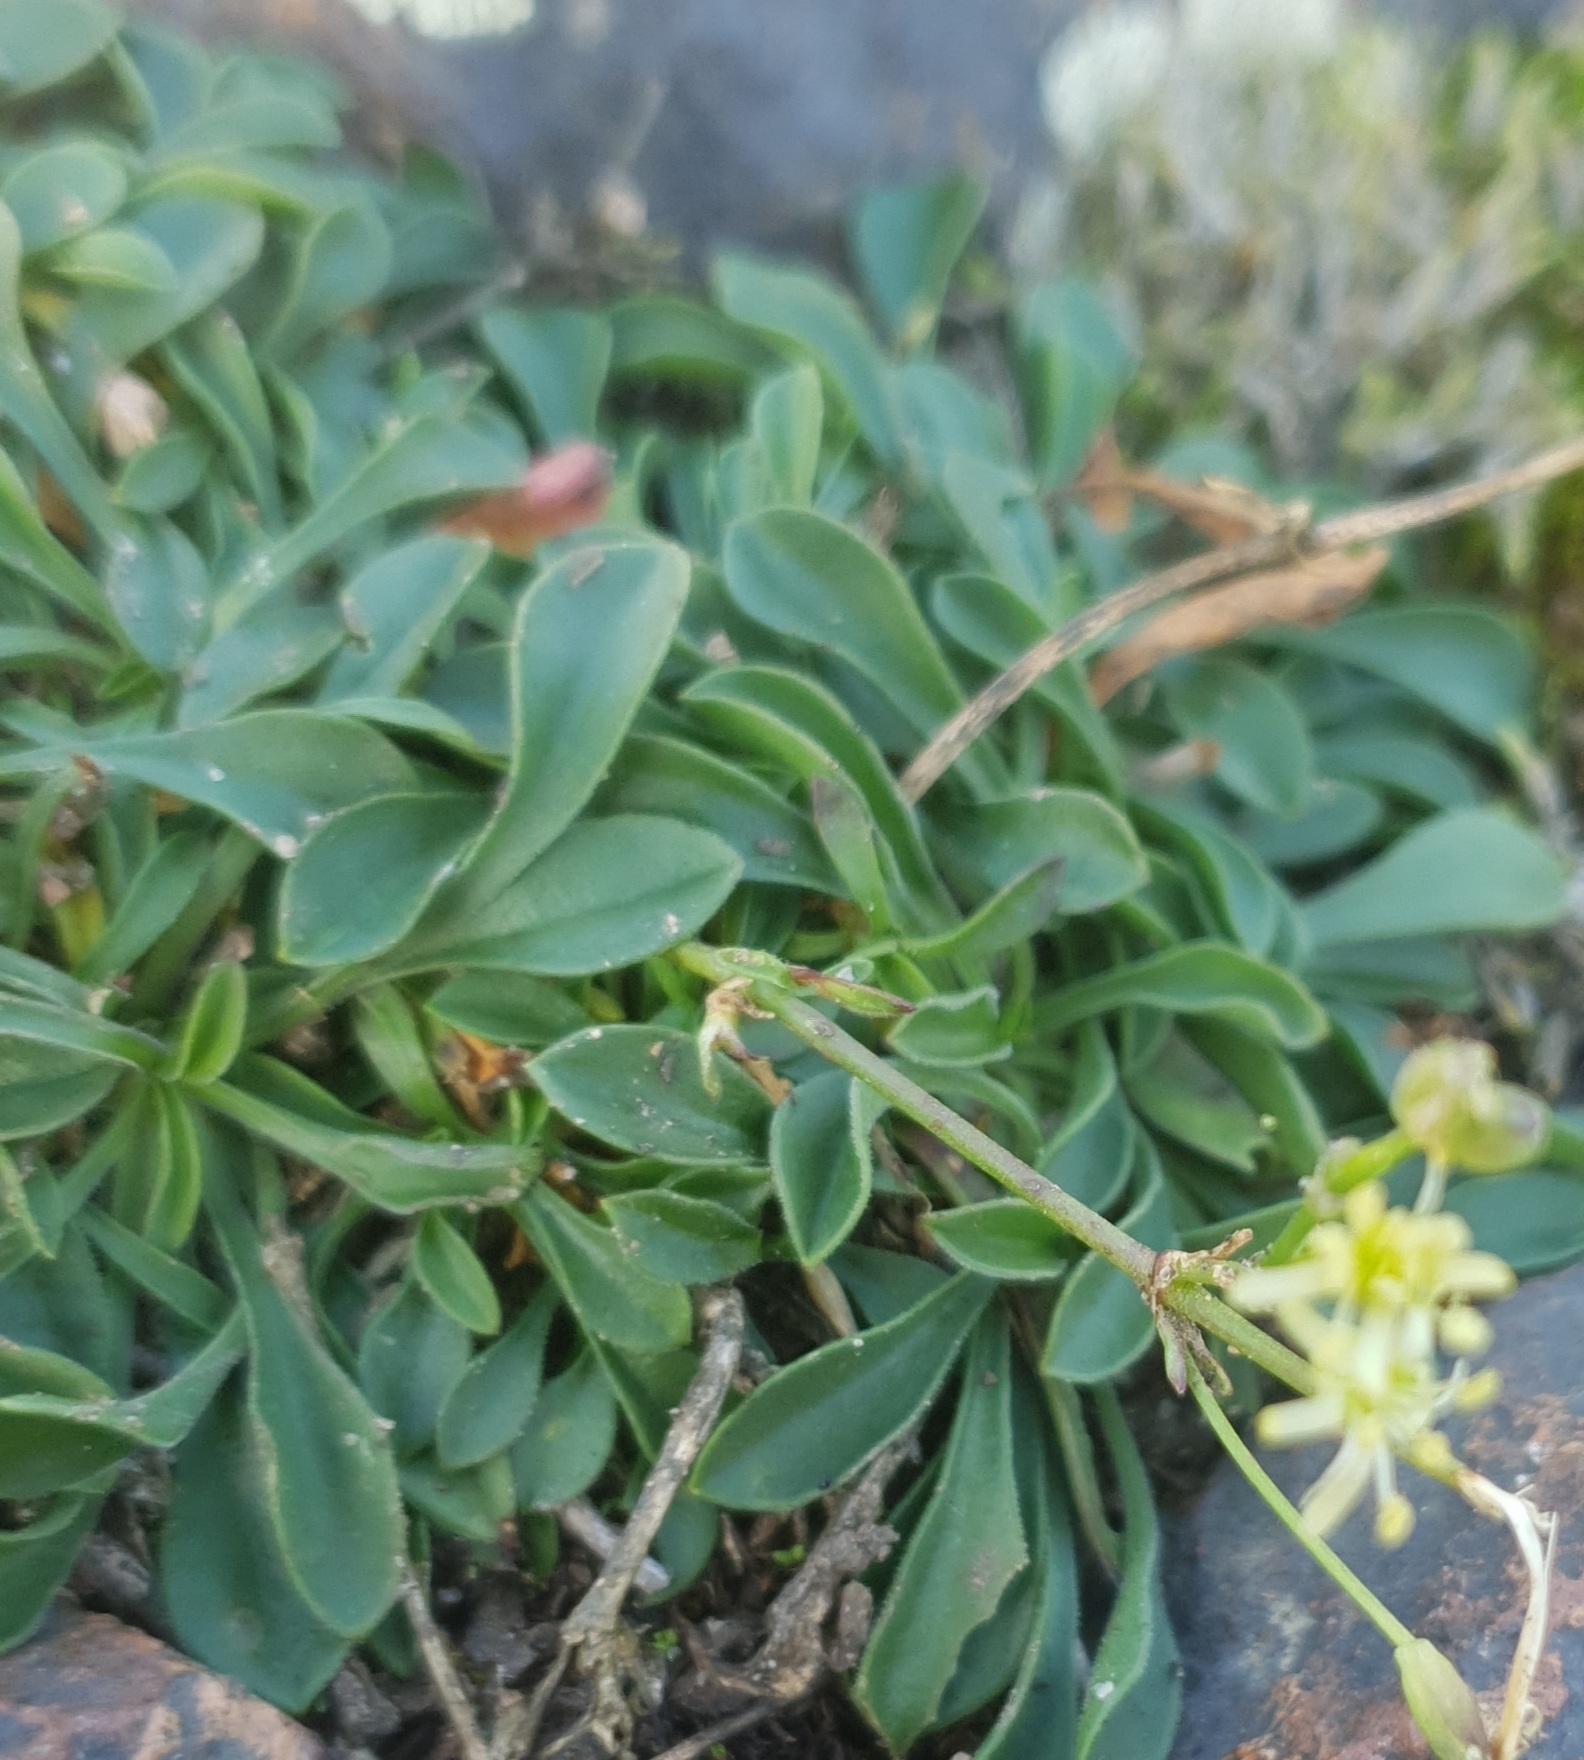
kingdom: Plantae
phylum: Tracheophyta
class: Magnoliopsida
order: Caryophyllales
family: Caryophyllaceae
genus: Silene
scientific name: Silene otites
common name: Spanish catchfly
